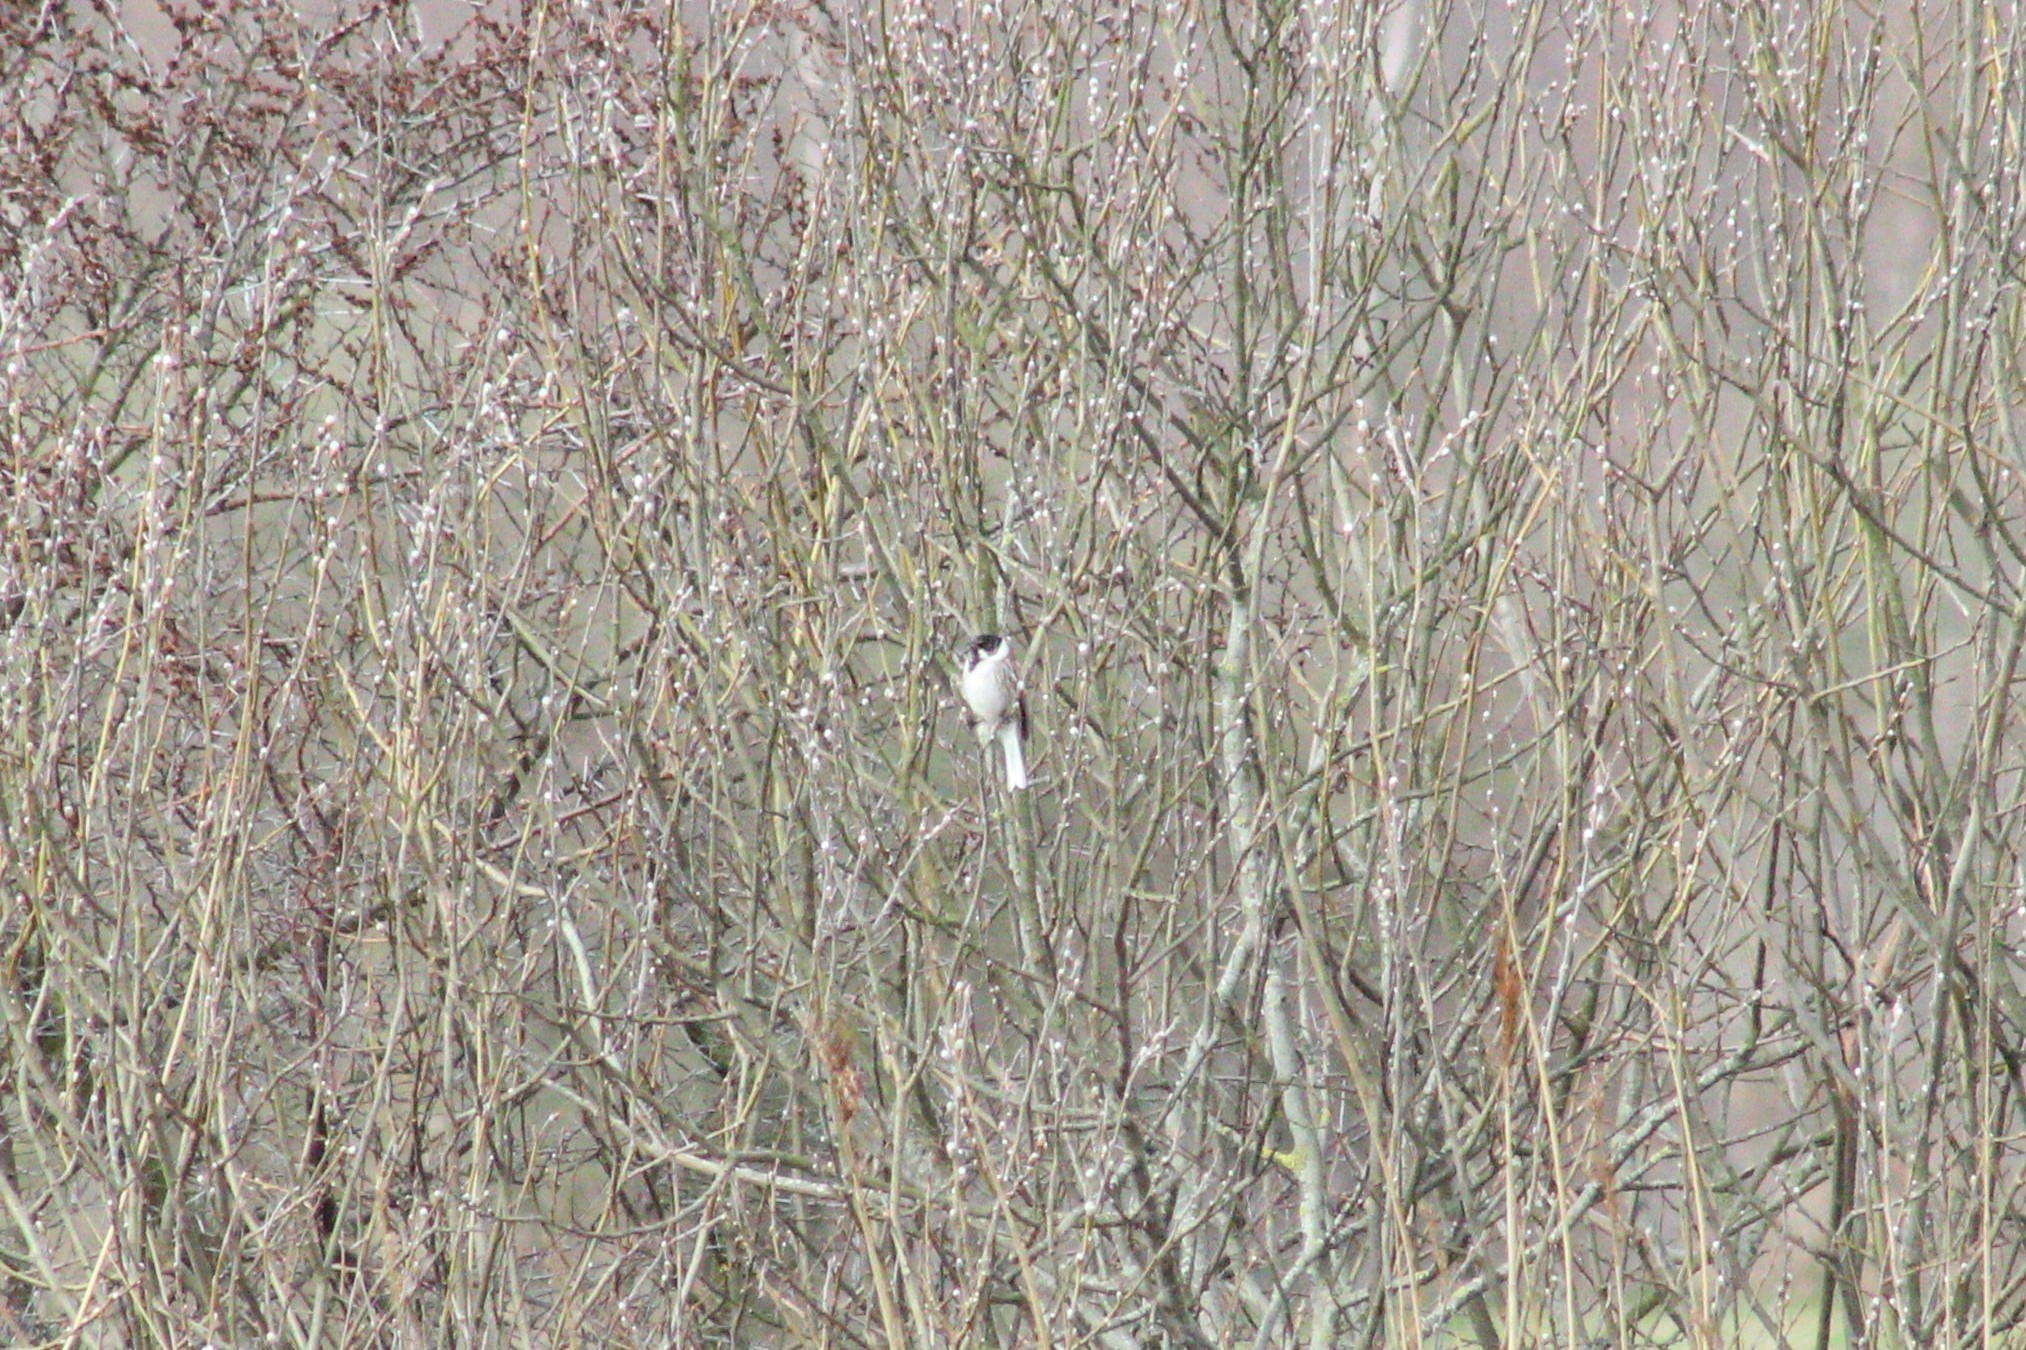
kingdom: Animalia
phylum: Chordata
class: Aves
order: Passeriformes
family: Emberizidae
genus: Emberiza
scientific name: Emberiza schoeniclus
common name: Reed bunting
